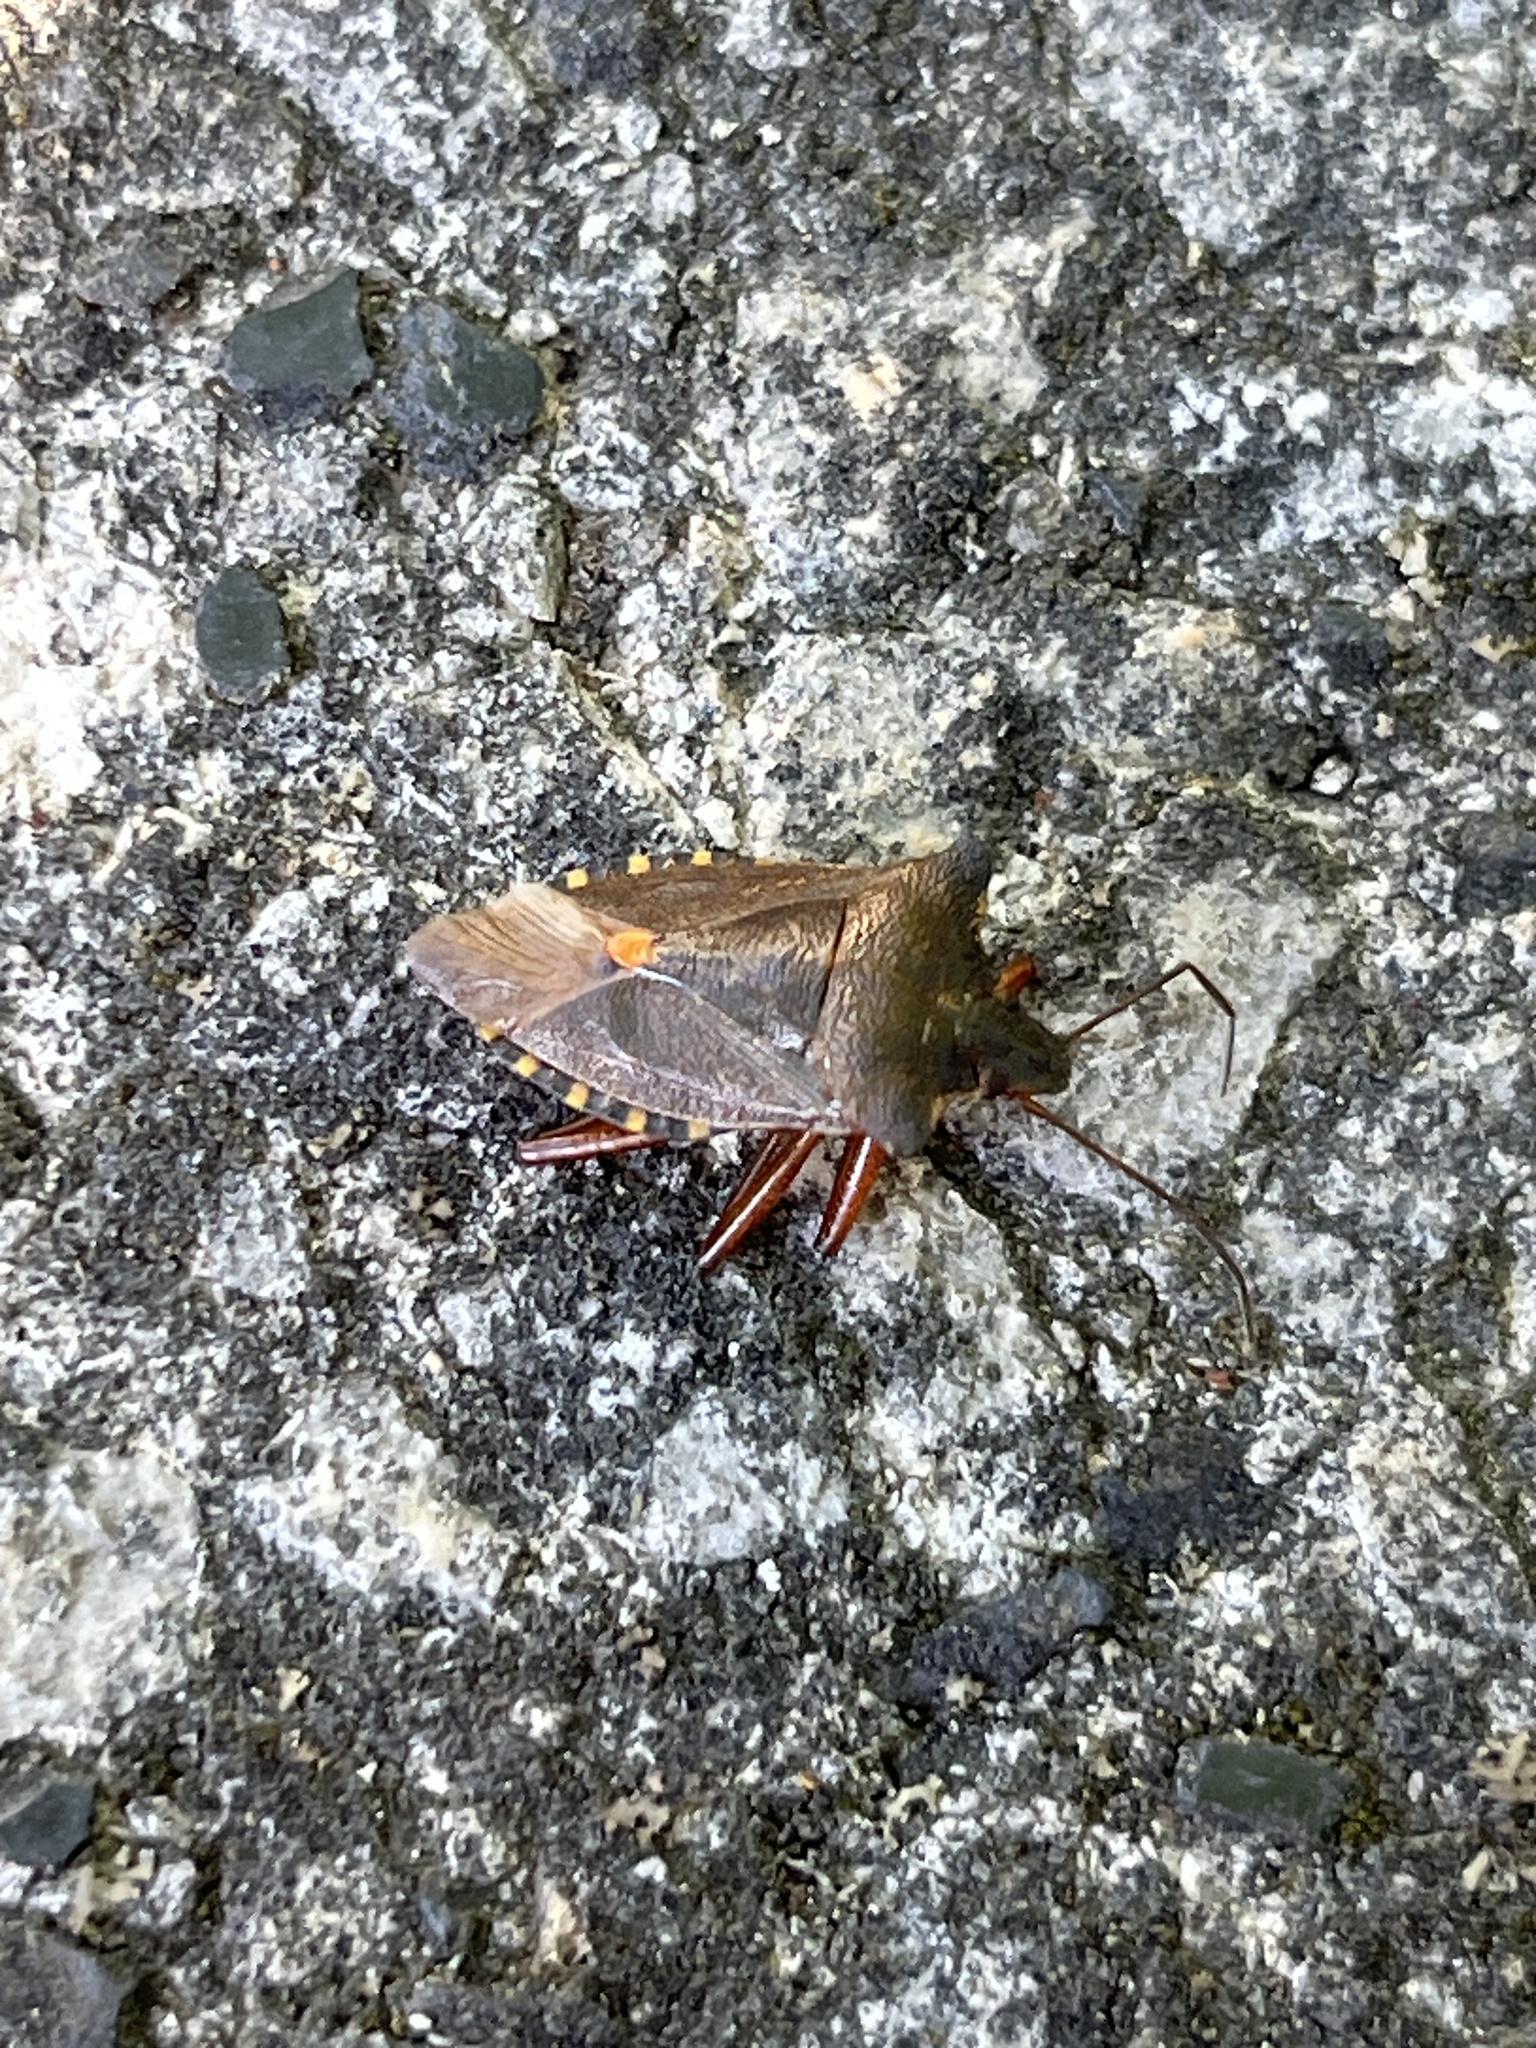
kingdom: Animalia
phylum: Arthropoda
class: Insecta
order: Hemiptera
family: Pentatomidae
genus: Pentatoma
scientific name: Pentatoma rufipes
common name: Forest bug
